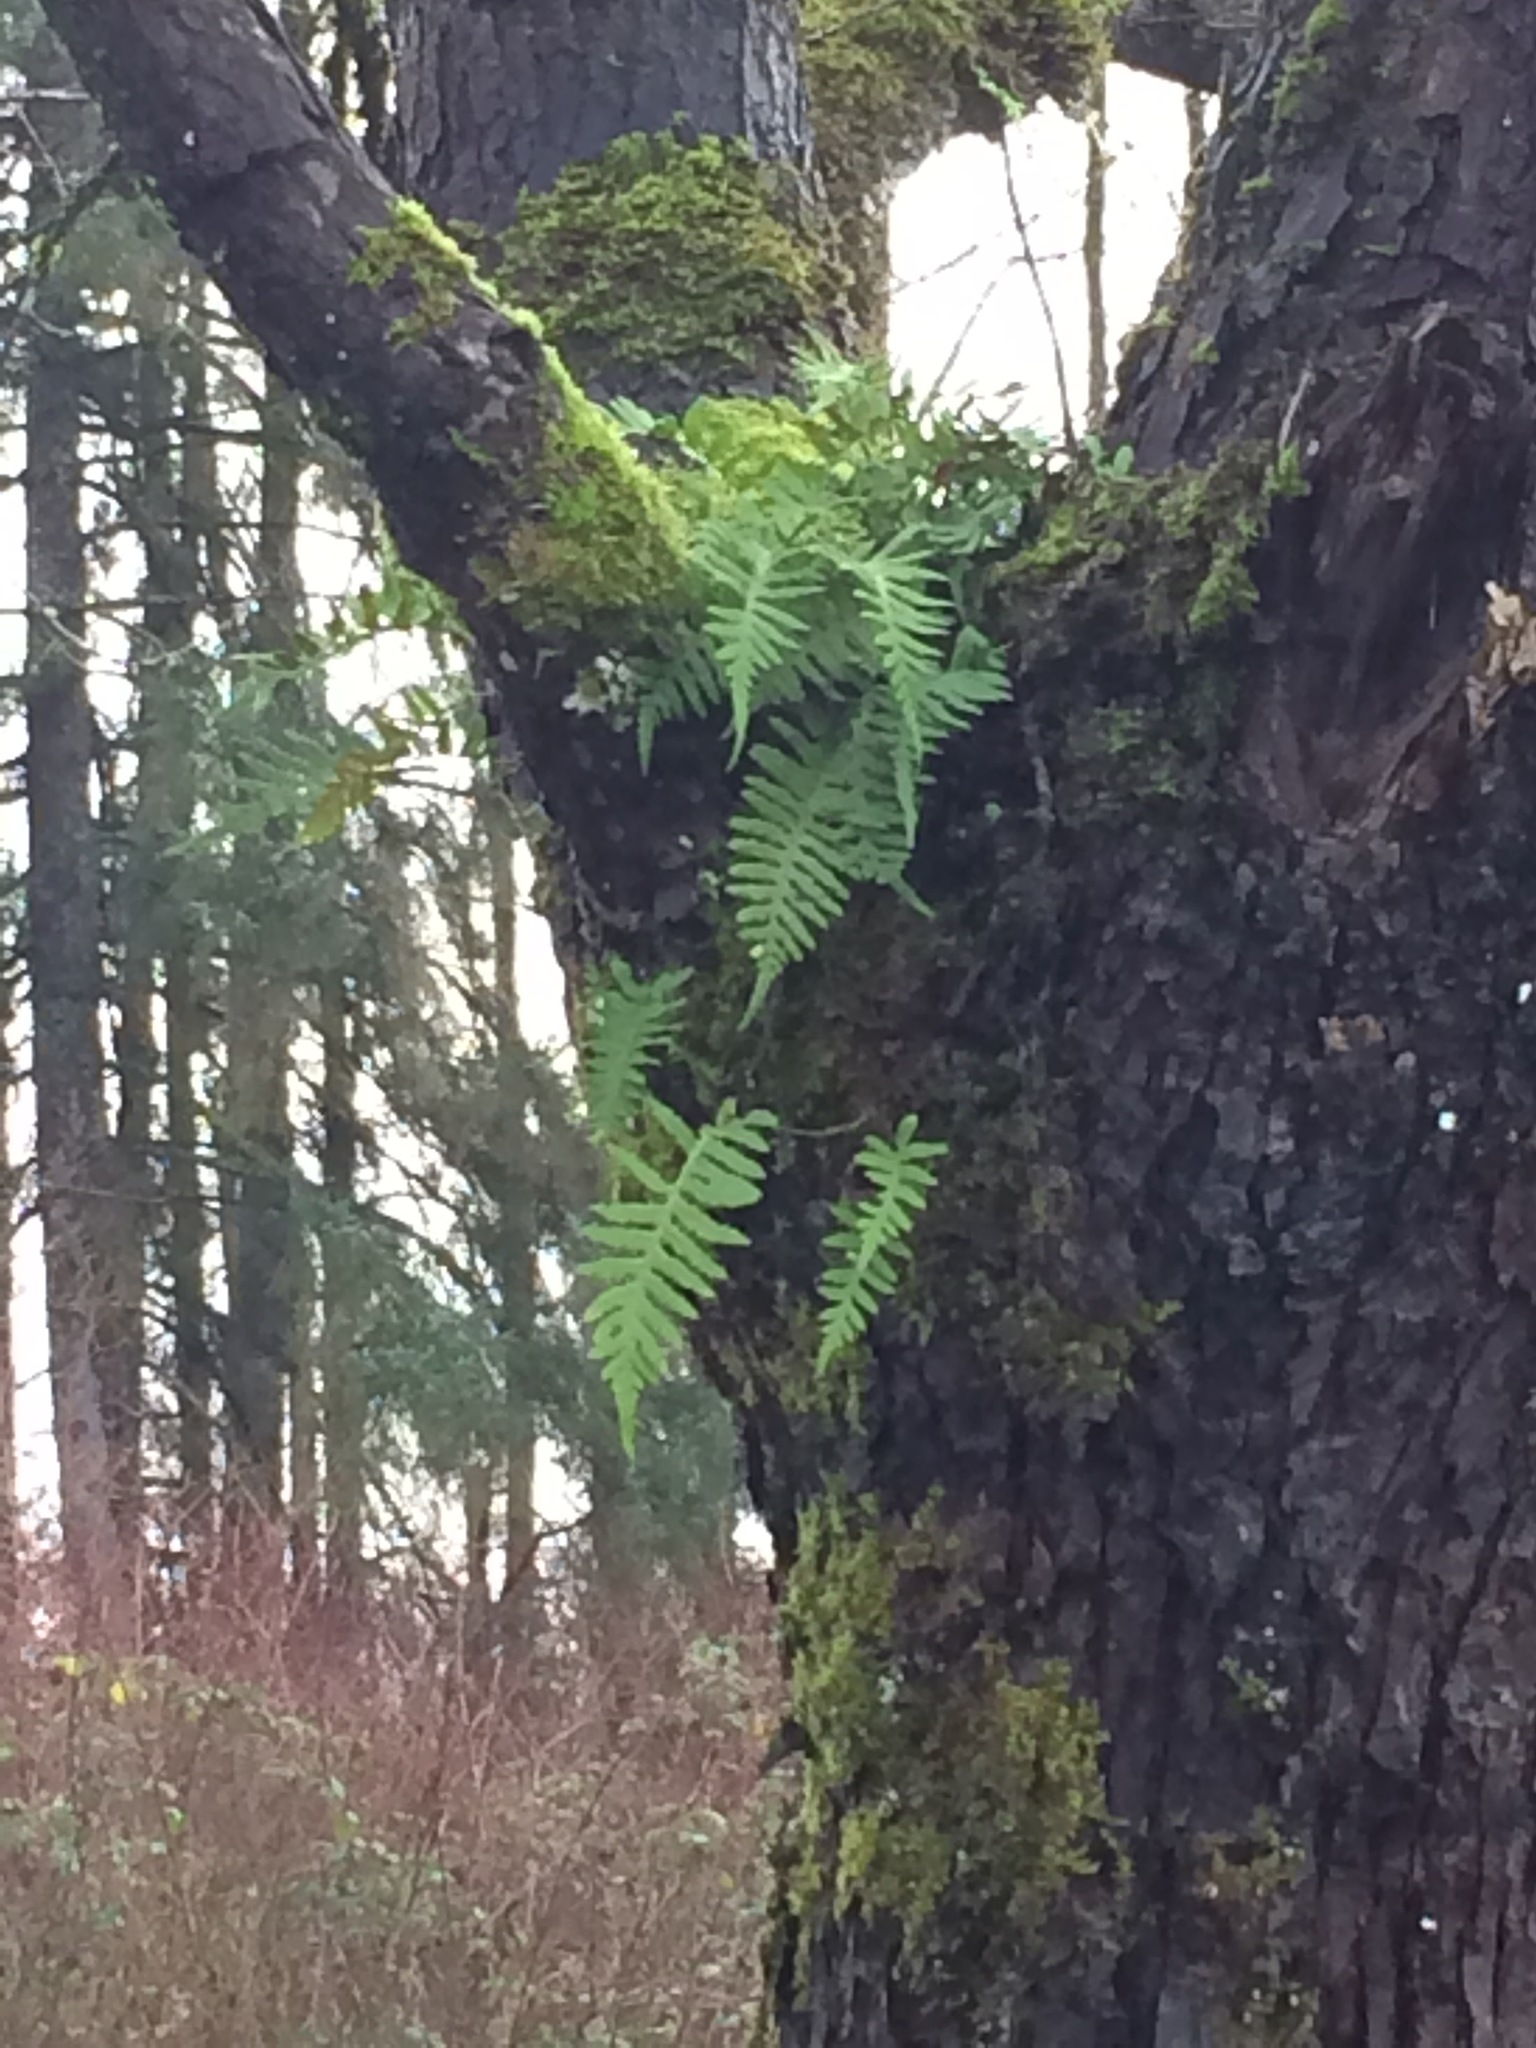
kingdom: Plantae
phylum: Tracheophyta
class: Polypodiopsida
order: Polypodiales
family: Polypodiaceae
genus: Polypodium
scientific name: Polypodium glycyrrhiza
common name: Licorice fern
